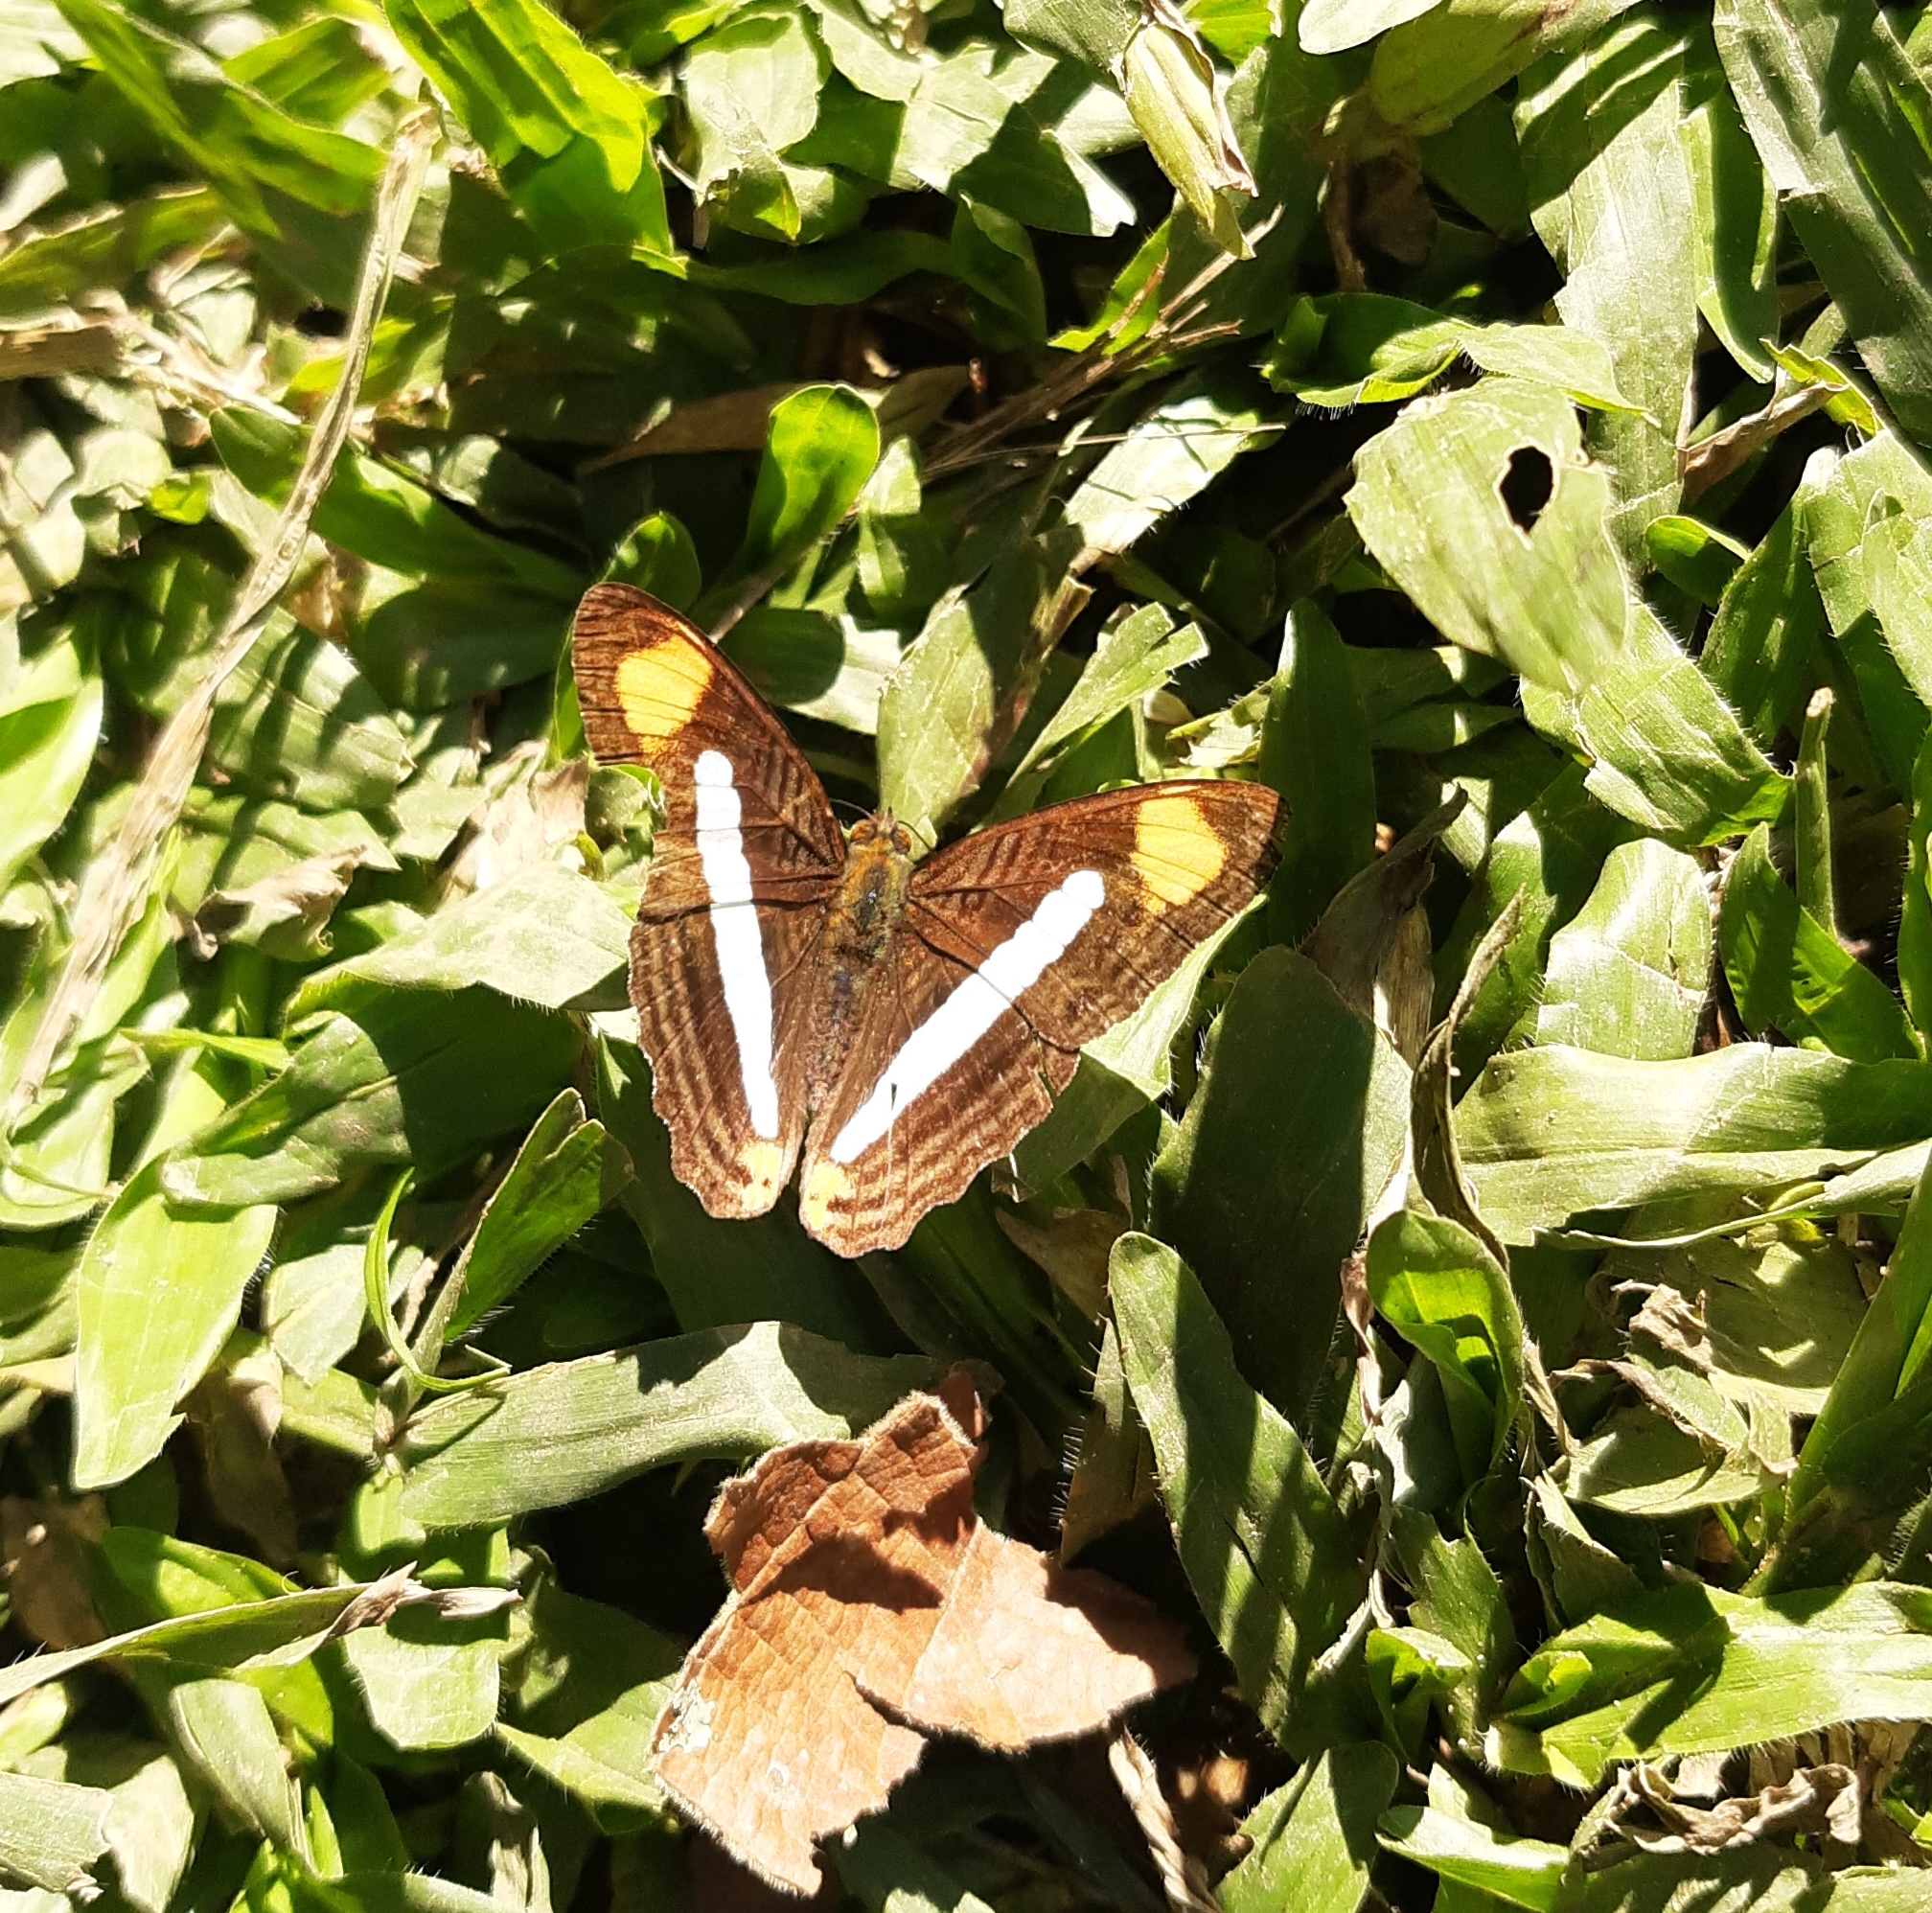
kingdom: Animalia
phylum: Arthropoda
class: Insecta
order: Lepidoptera
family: Nymphalidae
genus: Limenitis
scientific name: Limenitis epizygis
